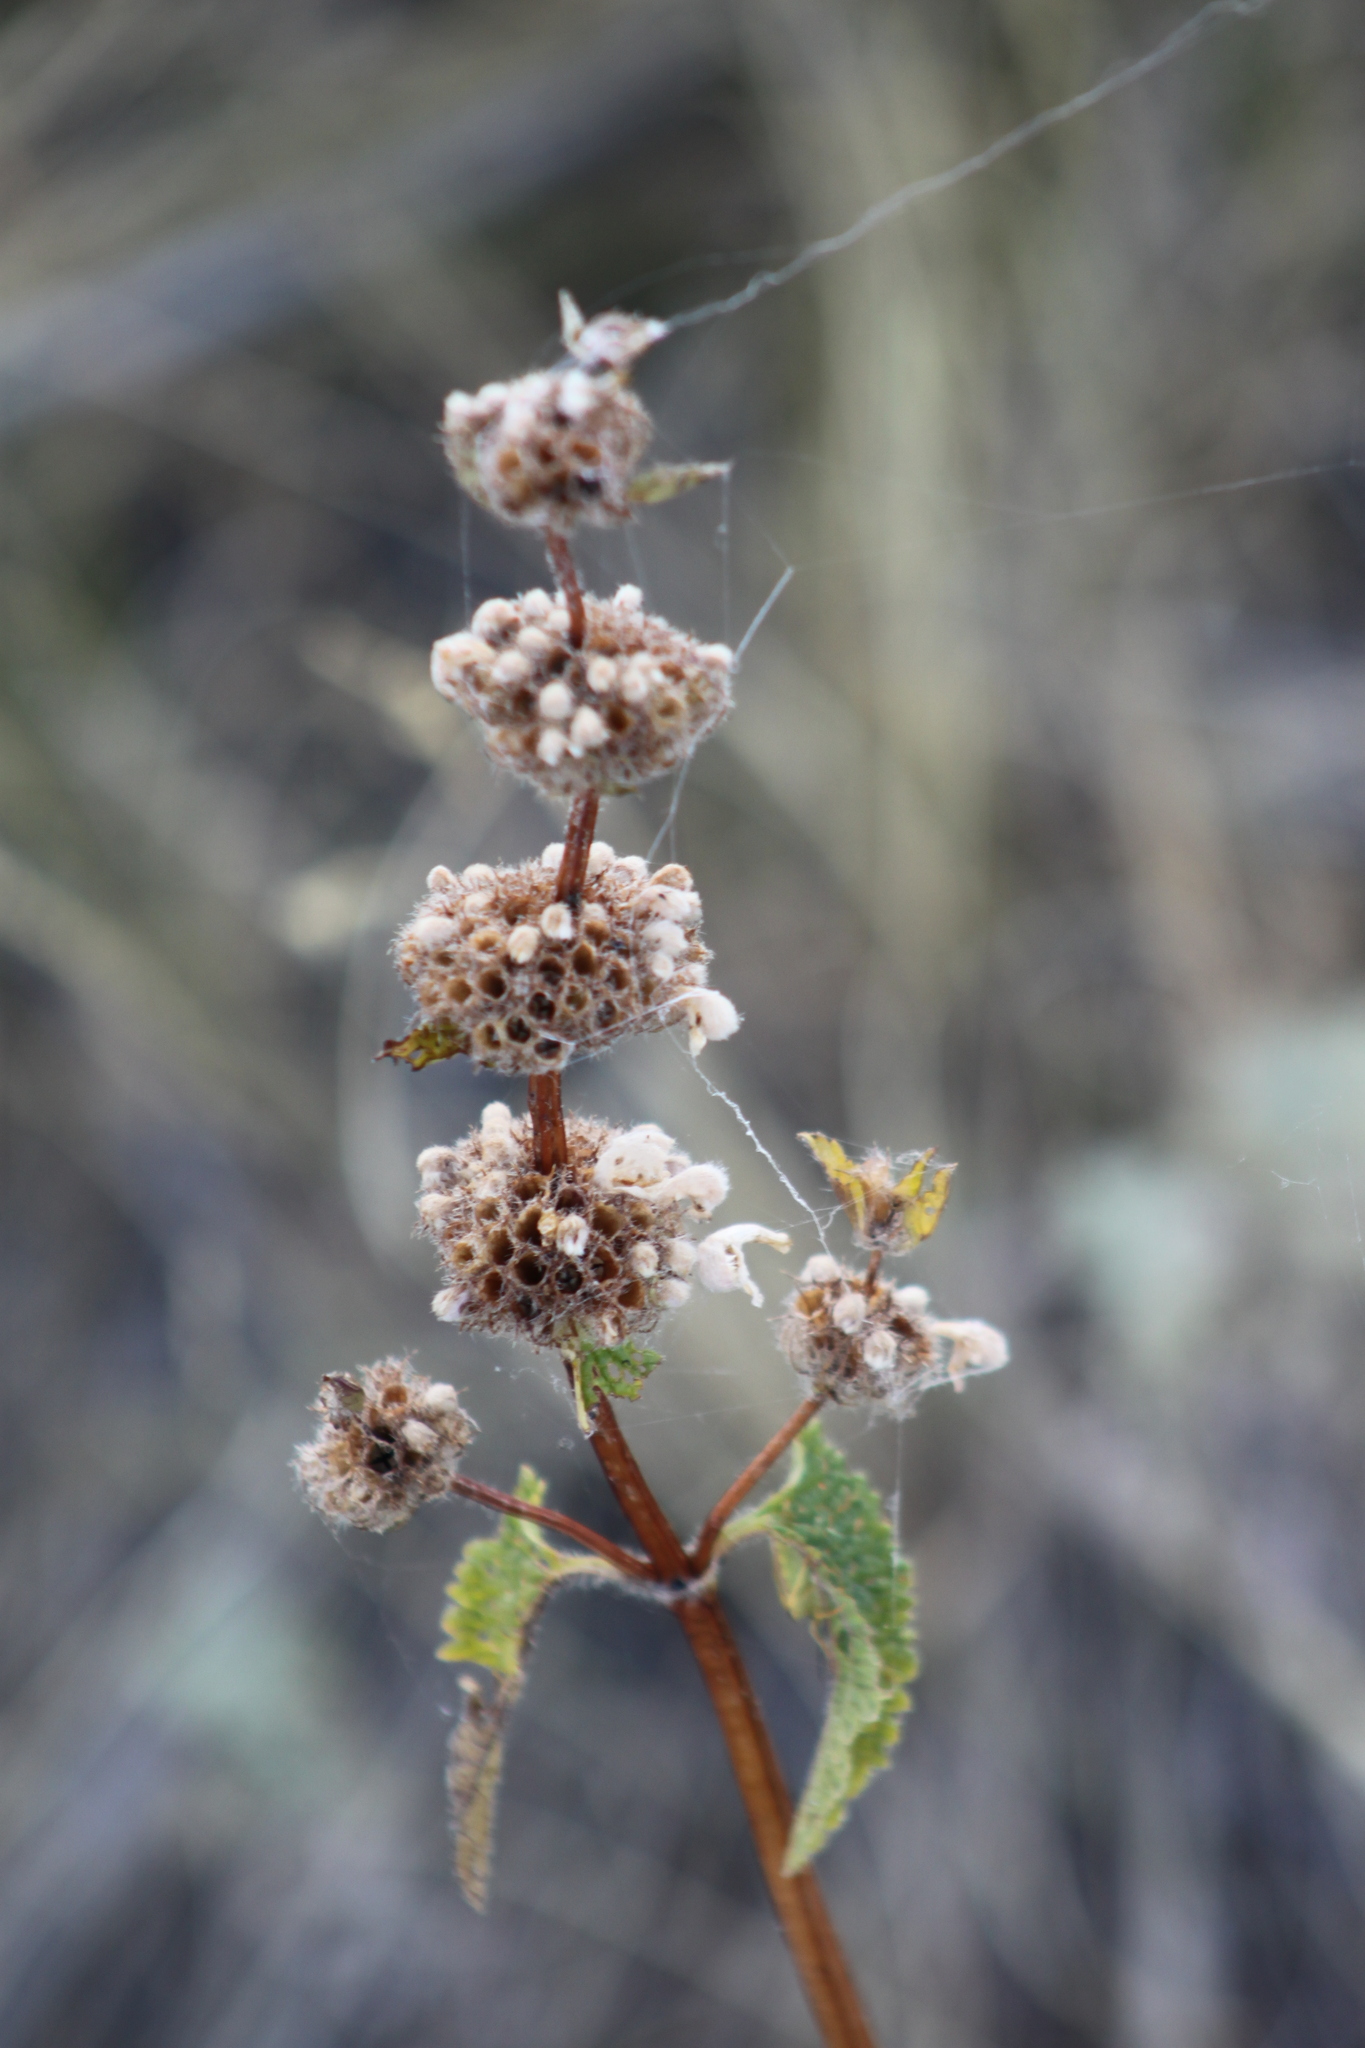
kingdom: Plantae
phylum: Tracheophyta
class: Magnoliopsida
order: Lamiales
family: Lamiaceae
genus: Phlomoides
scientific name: Phlomoides tuberosa
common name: Tuberous jerusalem sage
